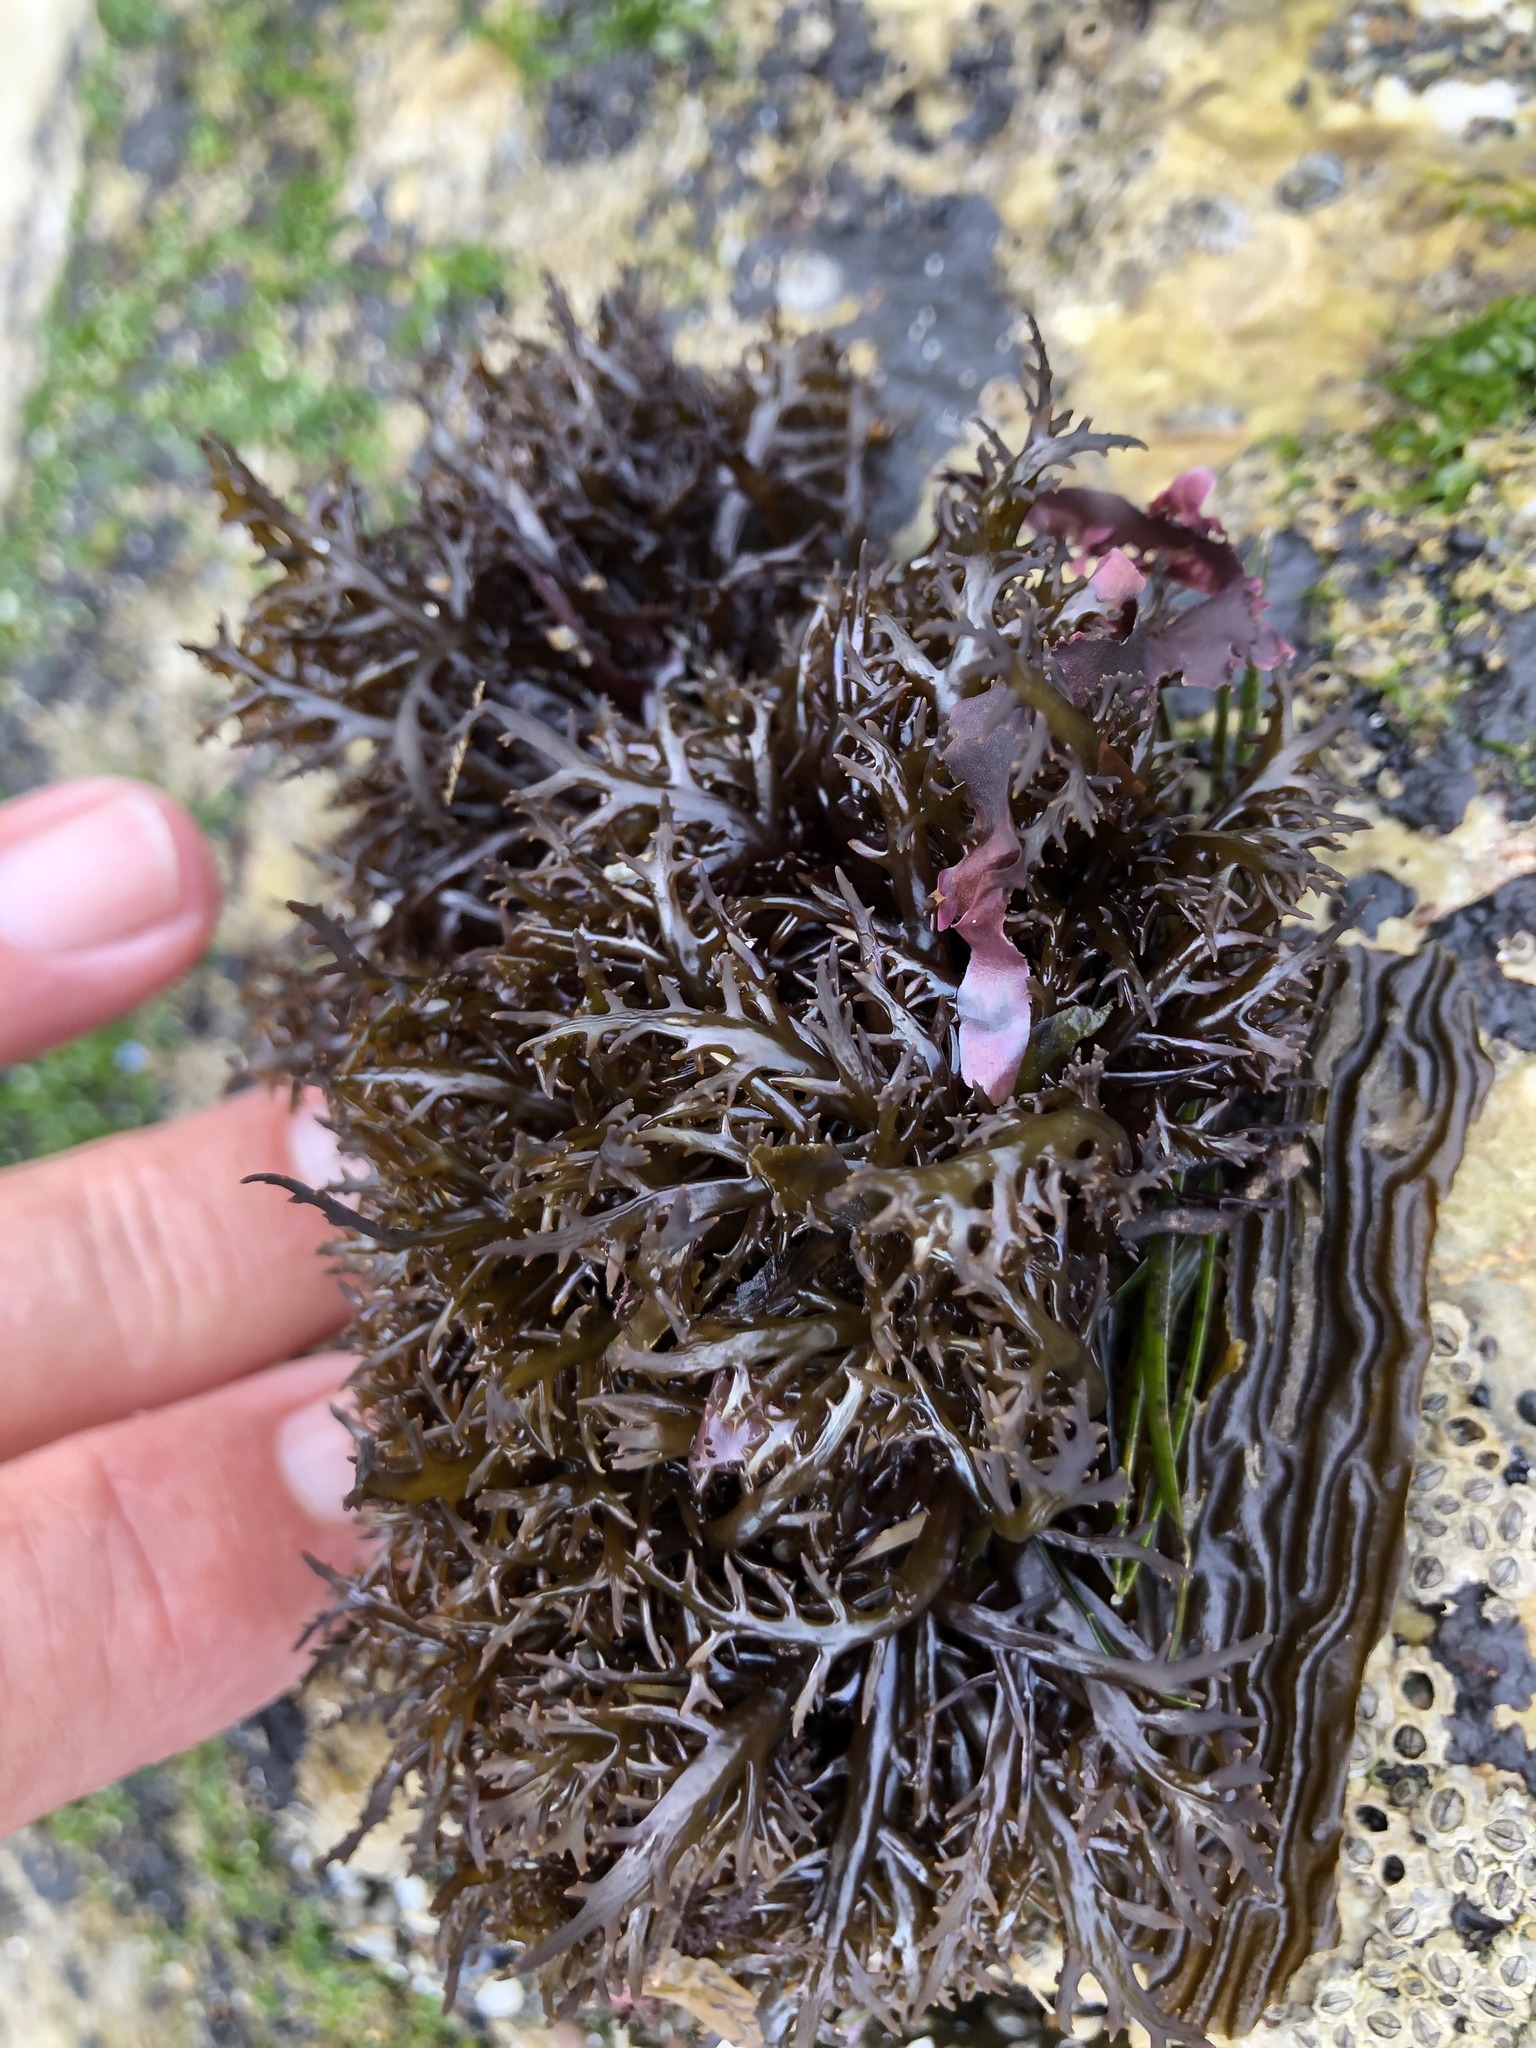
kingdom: Plantae
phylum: Rhodophyta
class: Florideophyceae
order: Gigartinales
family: Gigartinaceae
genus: Chondracanthus
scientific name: Chondracanthus canaliculatus
